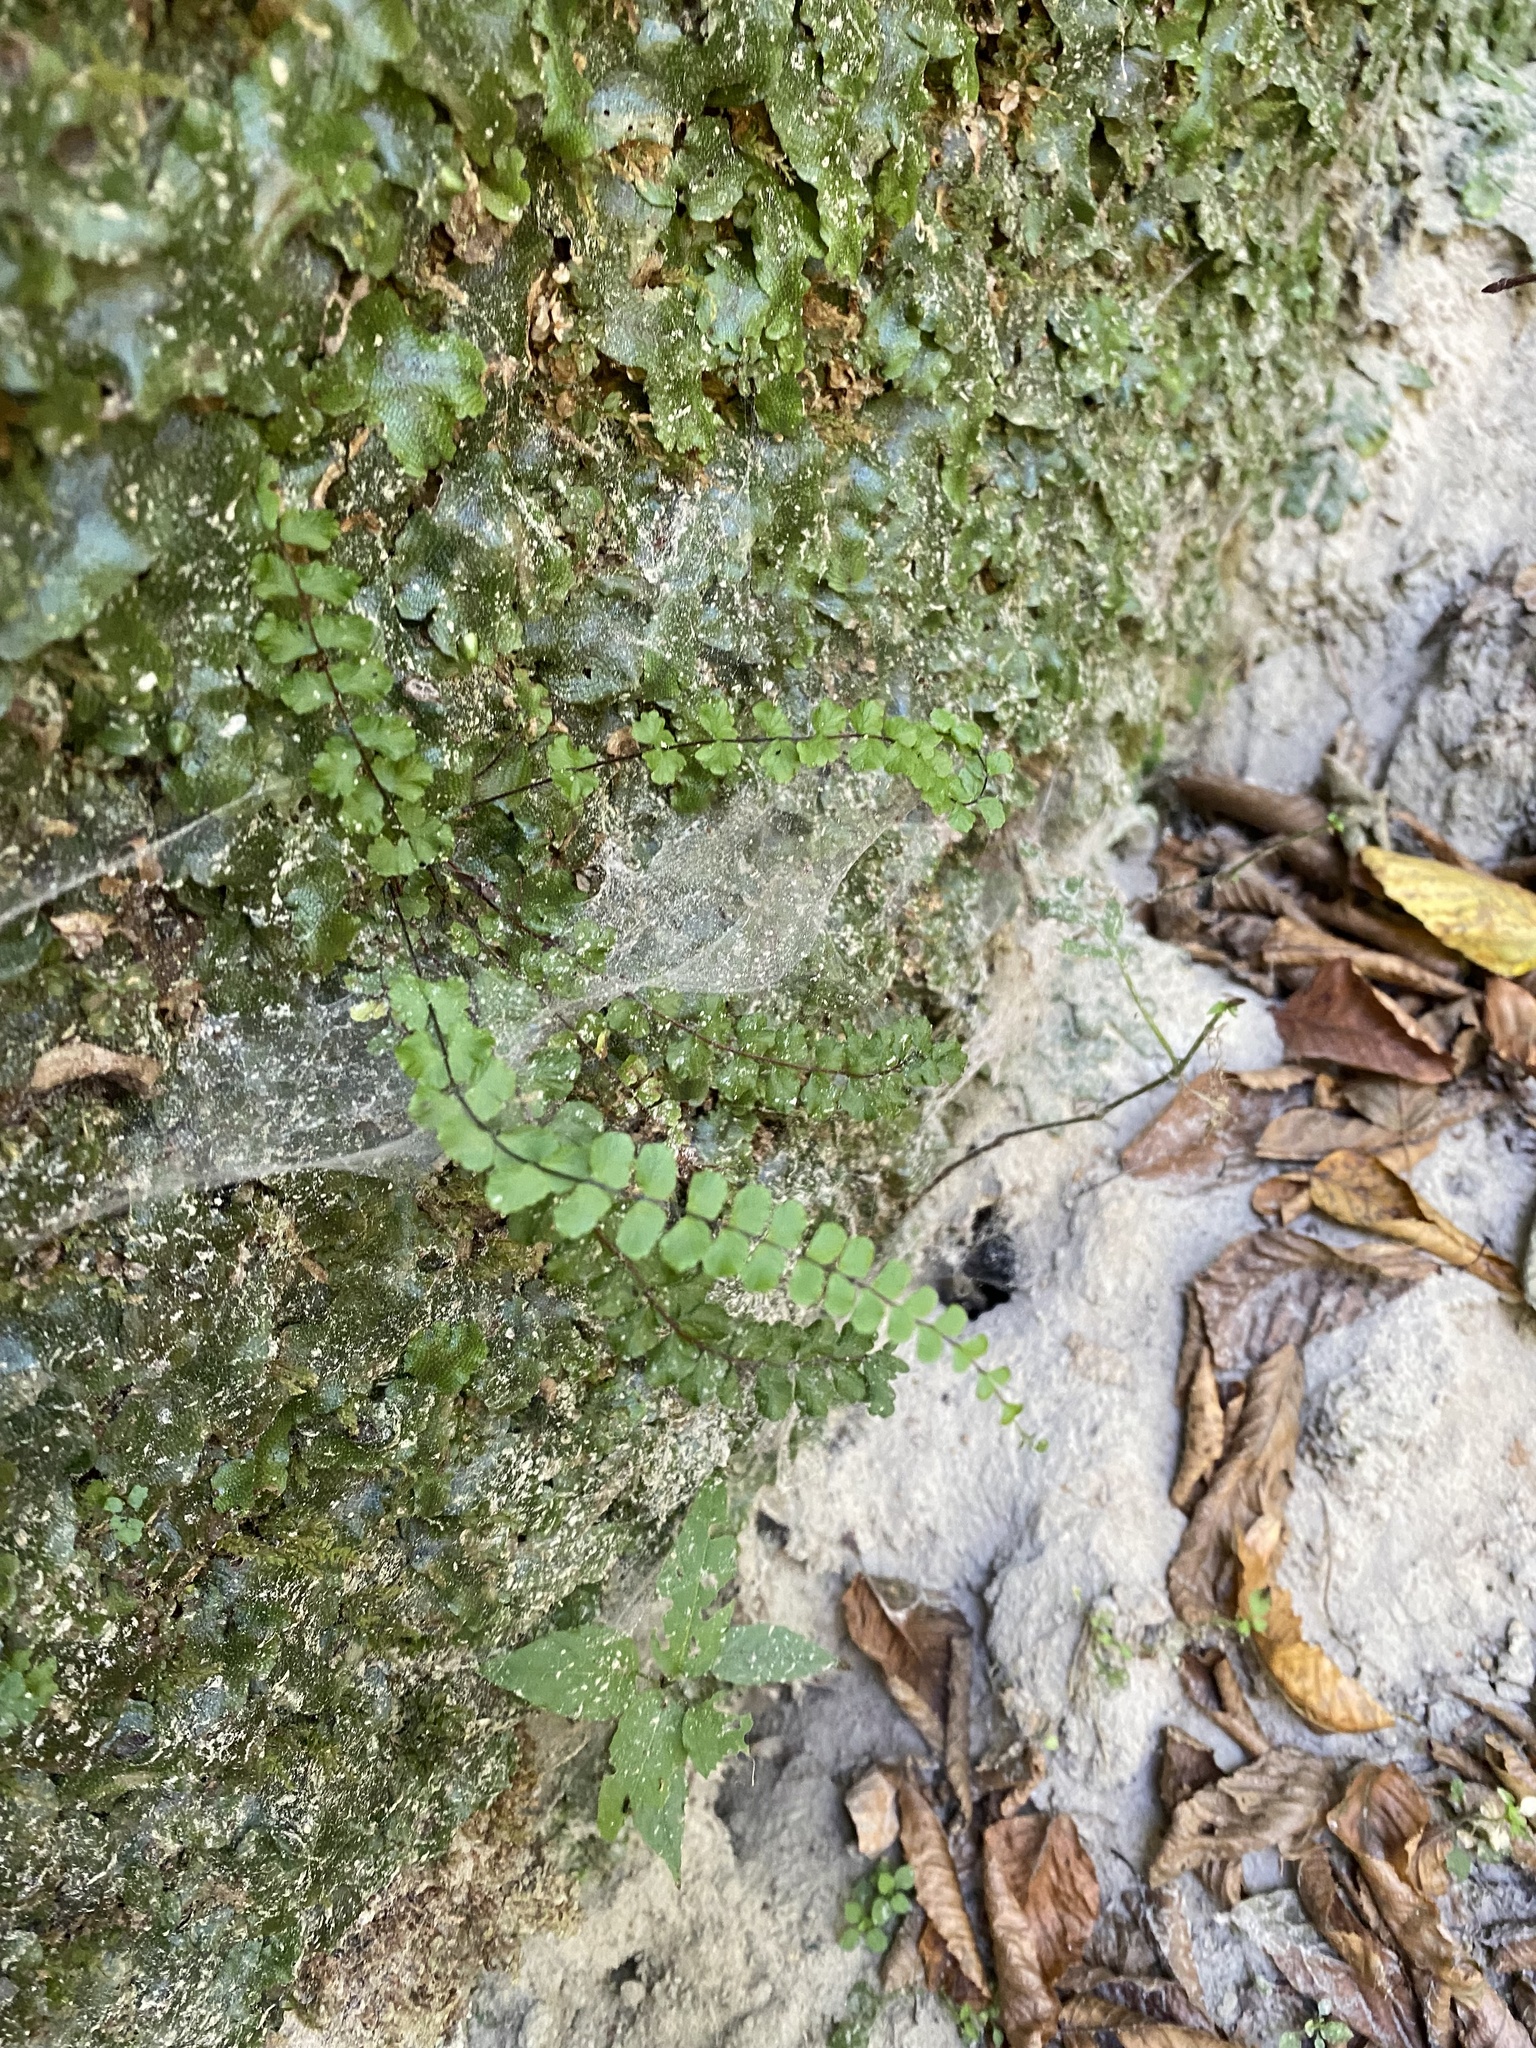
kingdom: Plantae
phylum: Tracheophyta
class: Polypodiopsida
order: Polypodiales
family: Aspleniaceae
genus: Asplenium
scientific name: Asplenium trichomanes
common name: Maidenhair spleenwort
